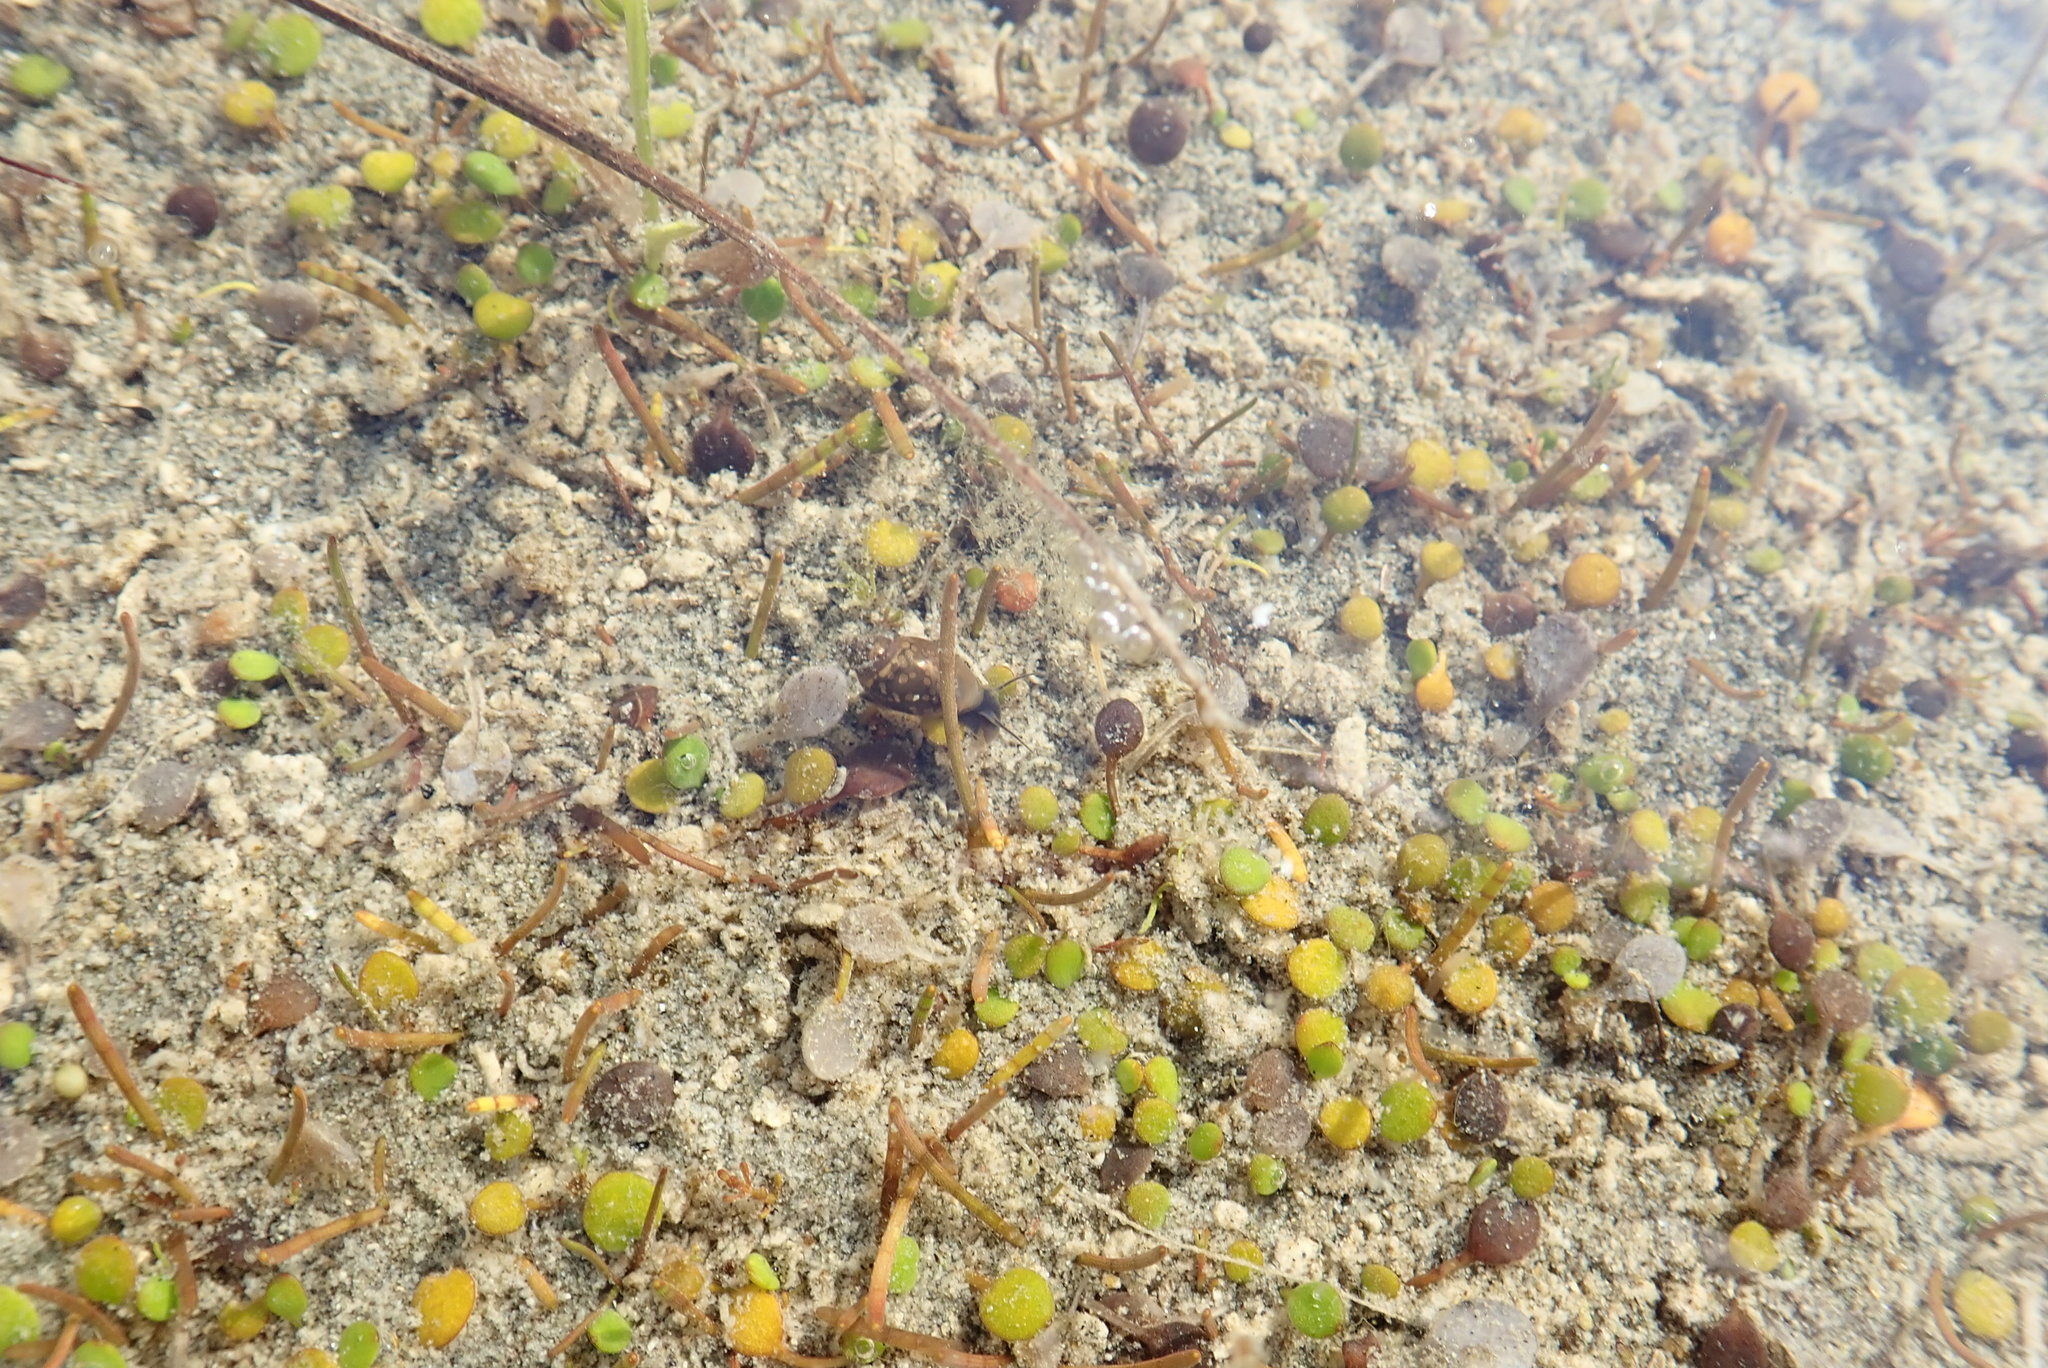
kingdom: Animalia
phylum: Mollusca
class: Gastropoda
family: Physidae
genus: Physella
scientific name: Physella acuta
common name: European physa
